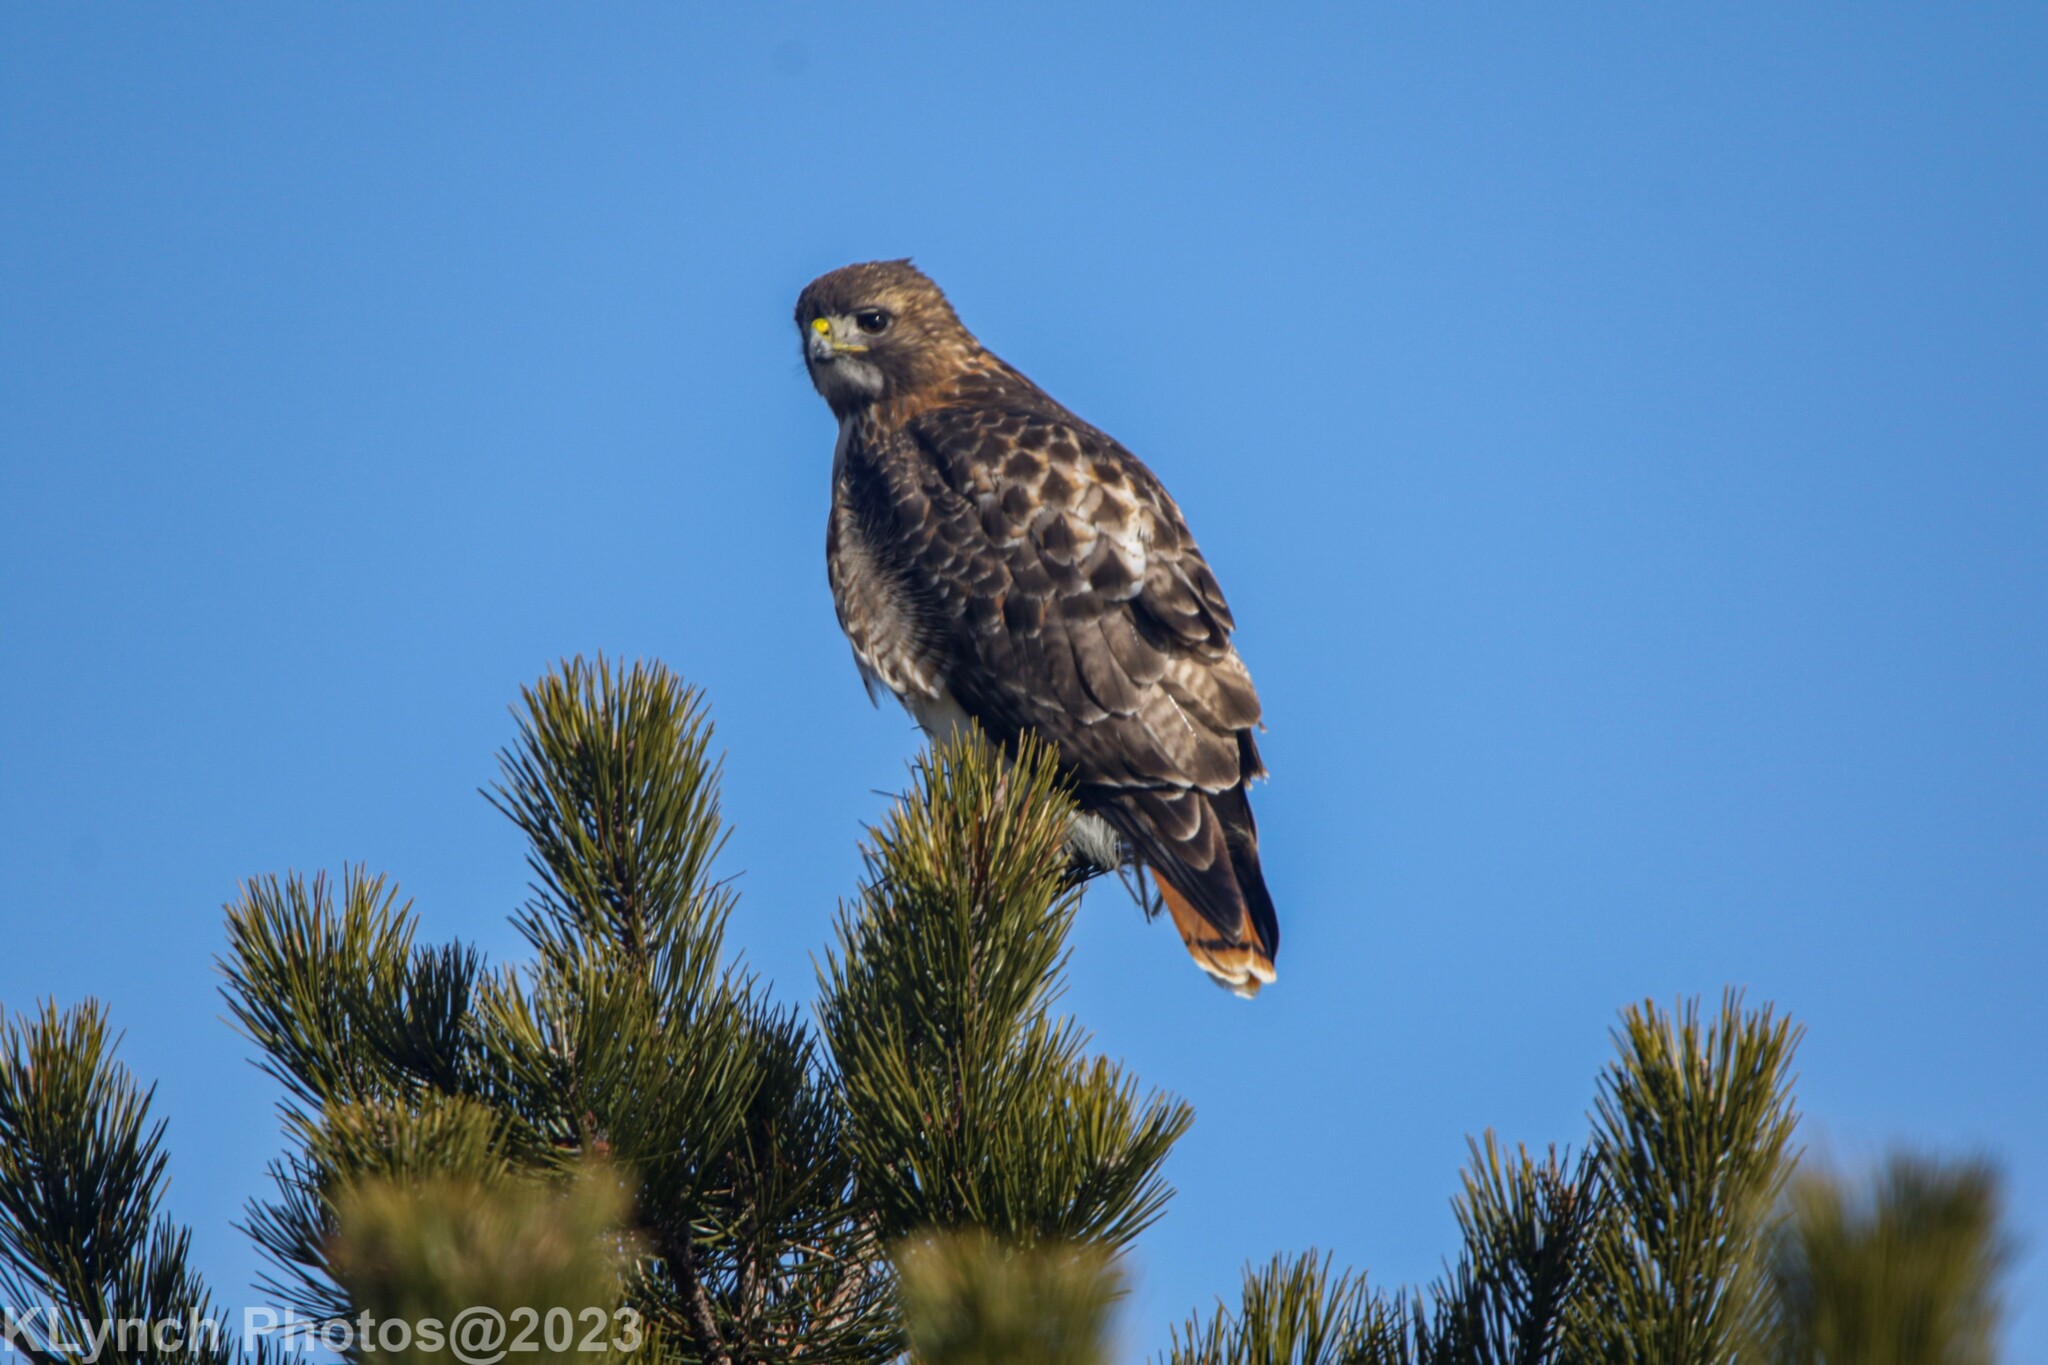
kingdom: Animalia
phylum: Chordata
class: Aves
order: Accipitriformes
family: Accipitridae
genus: Buteo
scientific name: Buteo jamaicensis
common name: Red-tailed hawk
